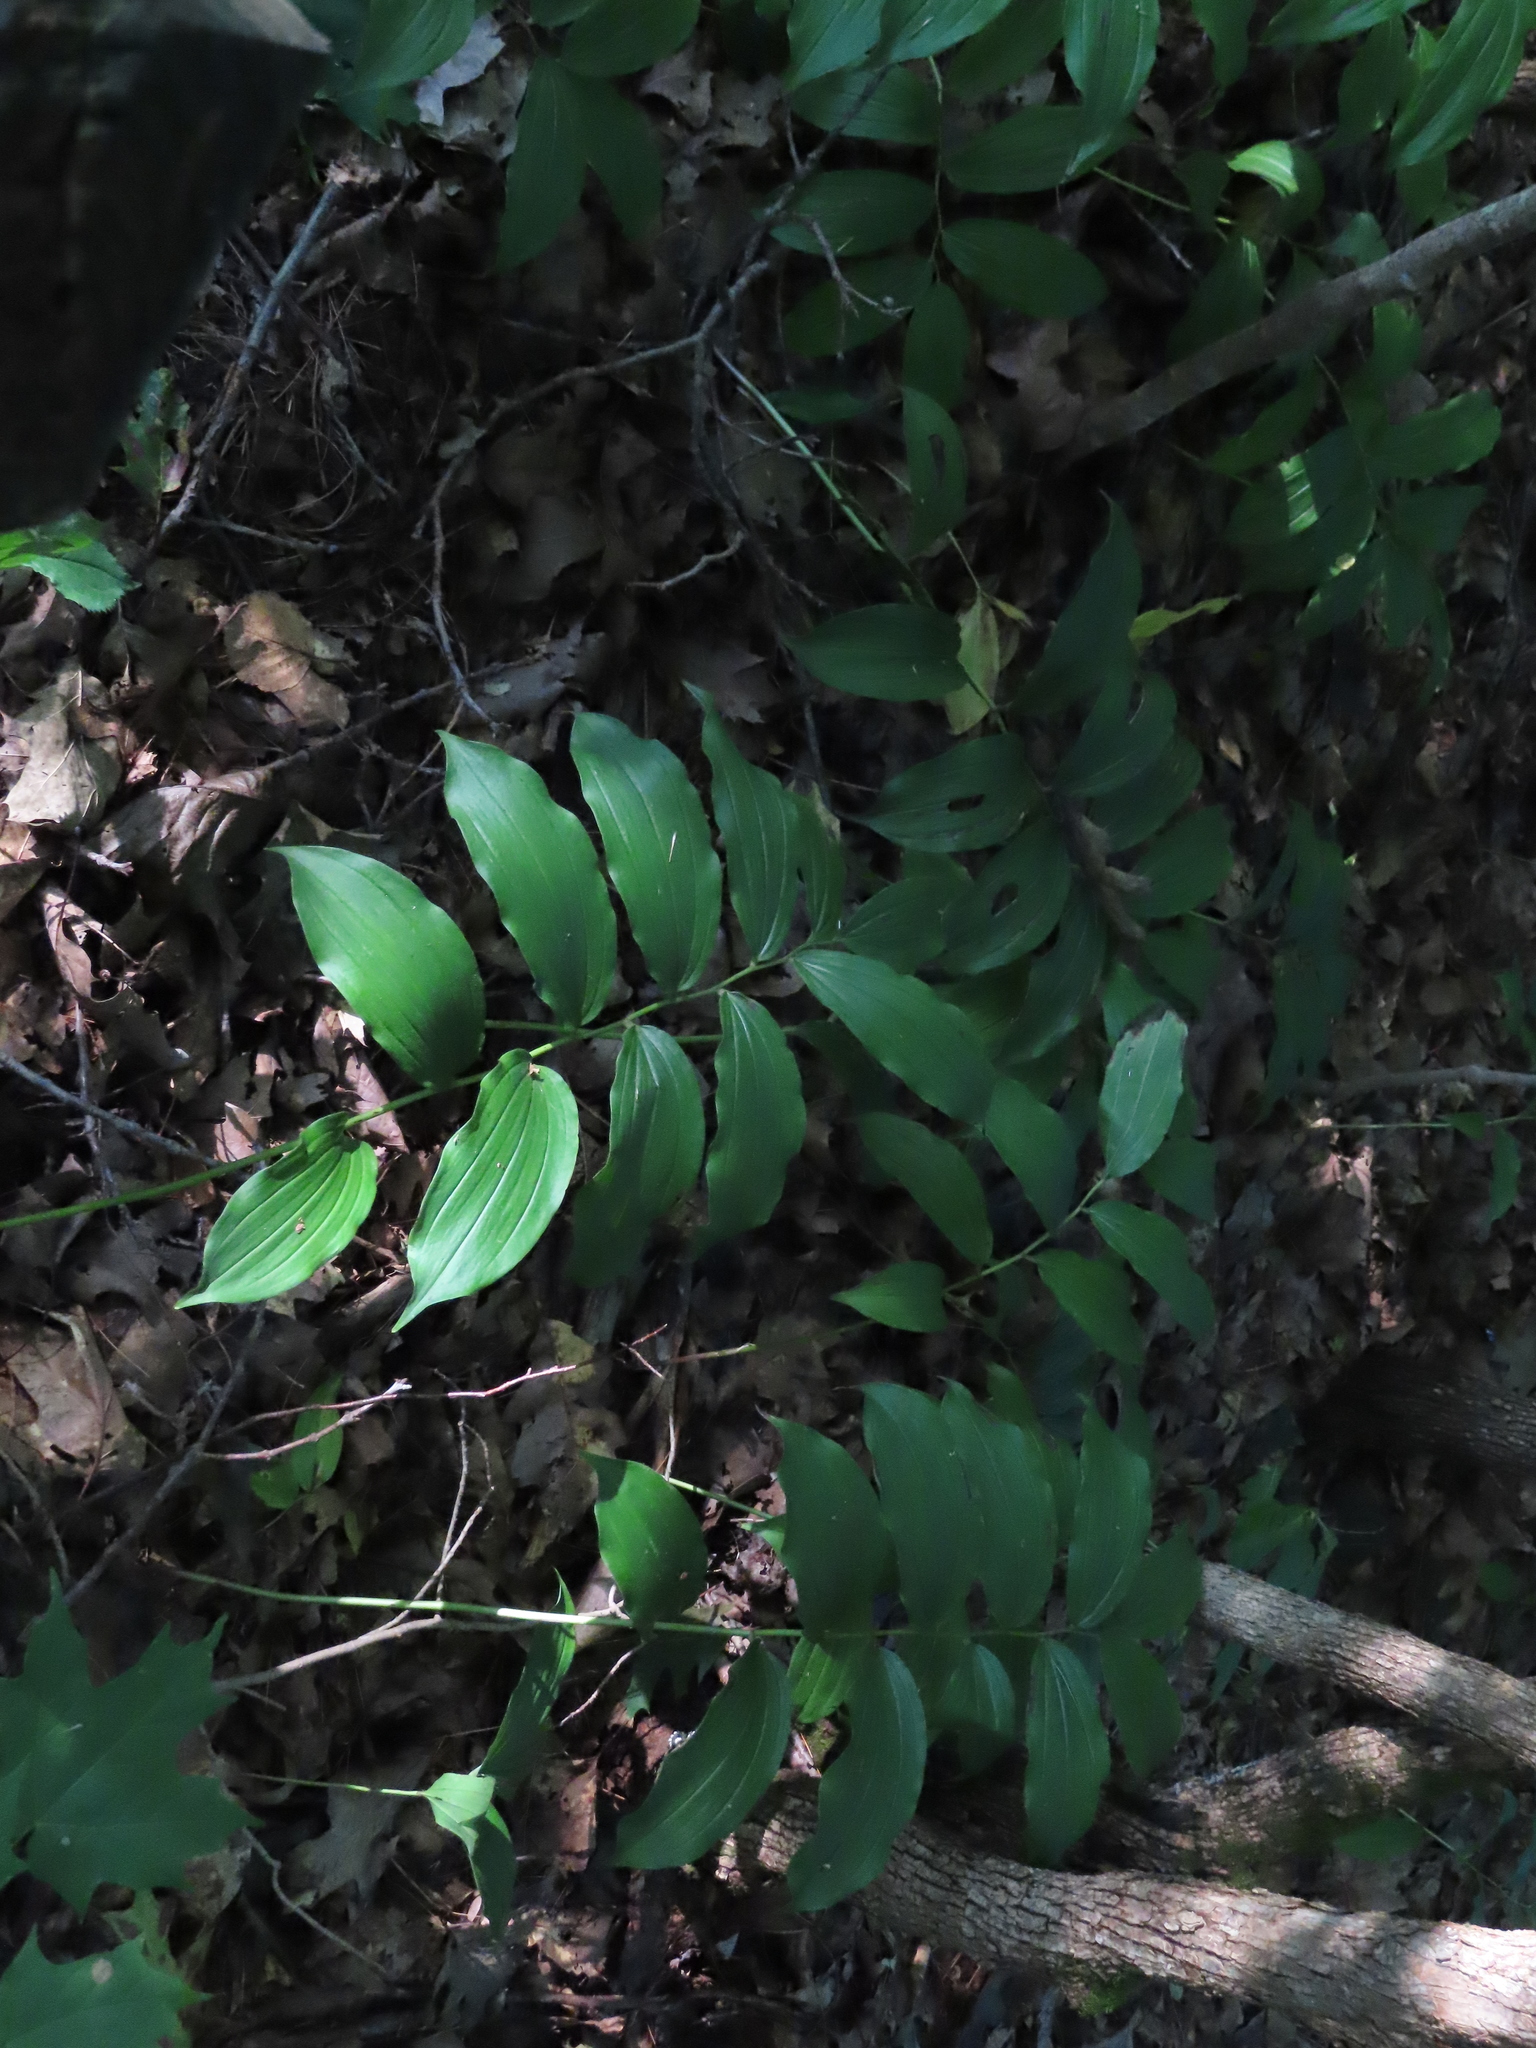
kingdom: Plantae
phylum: Tracheophyta
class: Liliopsida
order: Asparagales
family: Asparagaceae
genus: Maianthemum
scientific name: Maianthemum racemosum
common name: False spikenard
